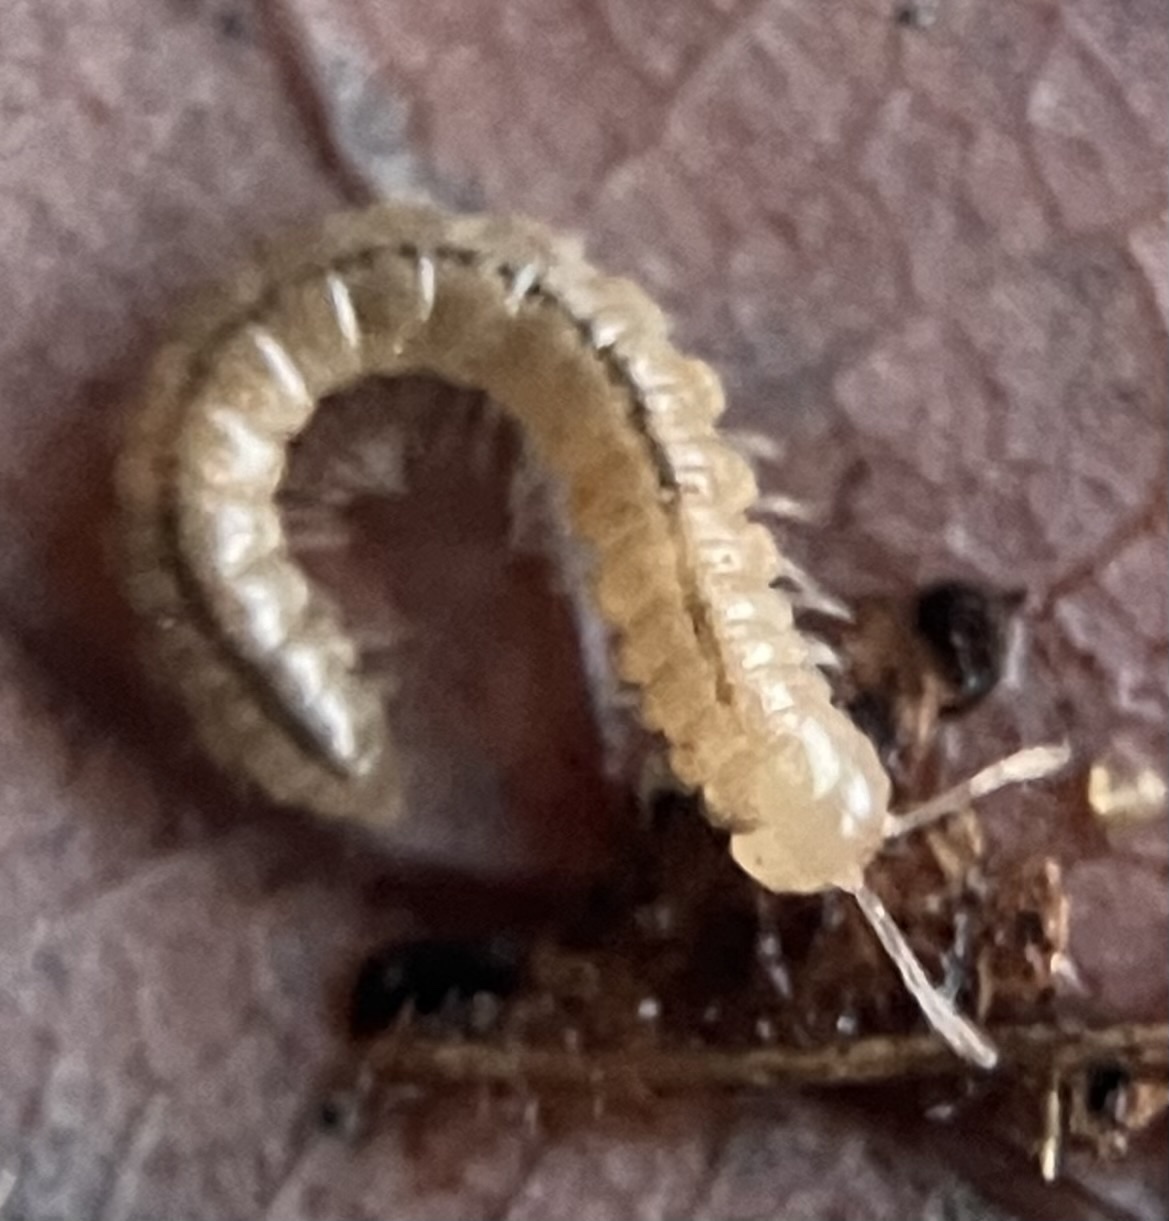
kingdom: Animalia
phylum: Arthropoda
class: Diplopoda
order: Polydesmida
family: Paradoxosomatidae
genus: Oxidus
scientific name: Oxidus gracilis
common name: Greenhouse millipede
